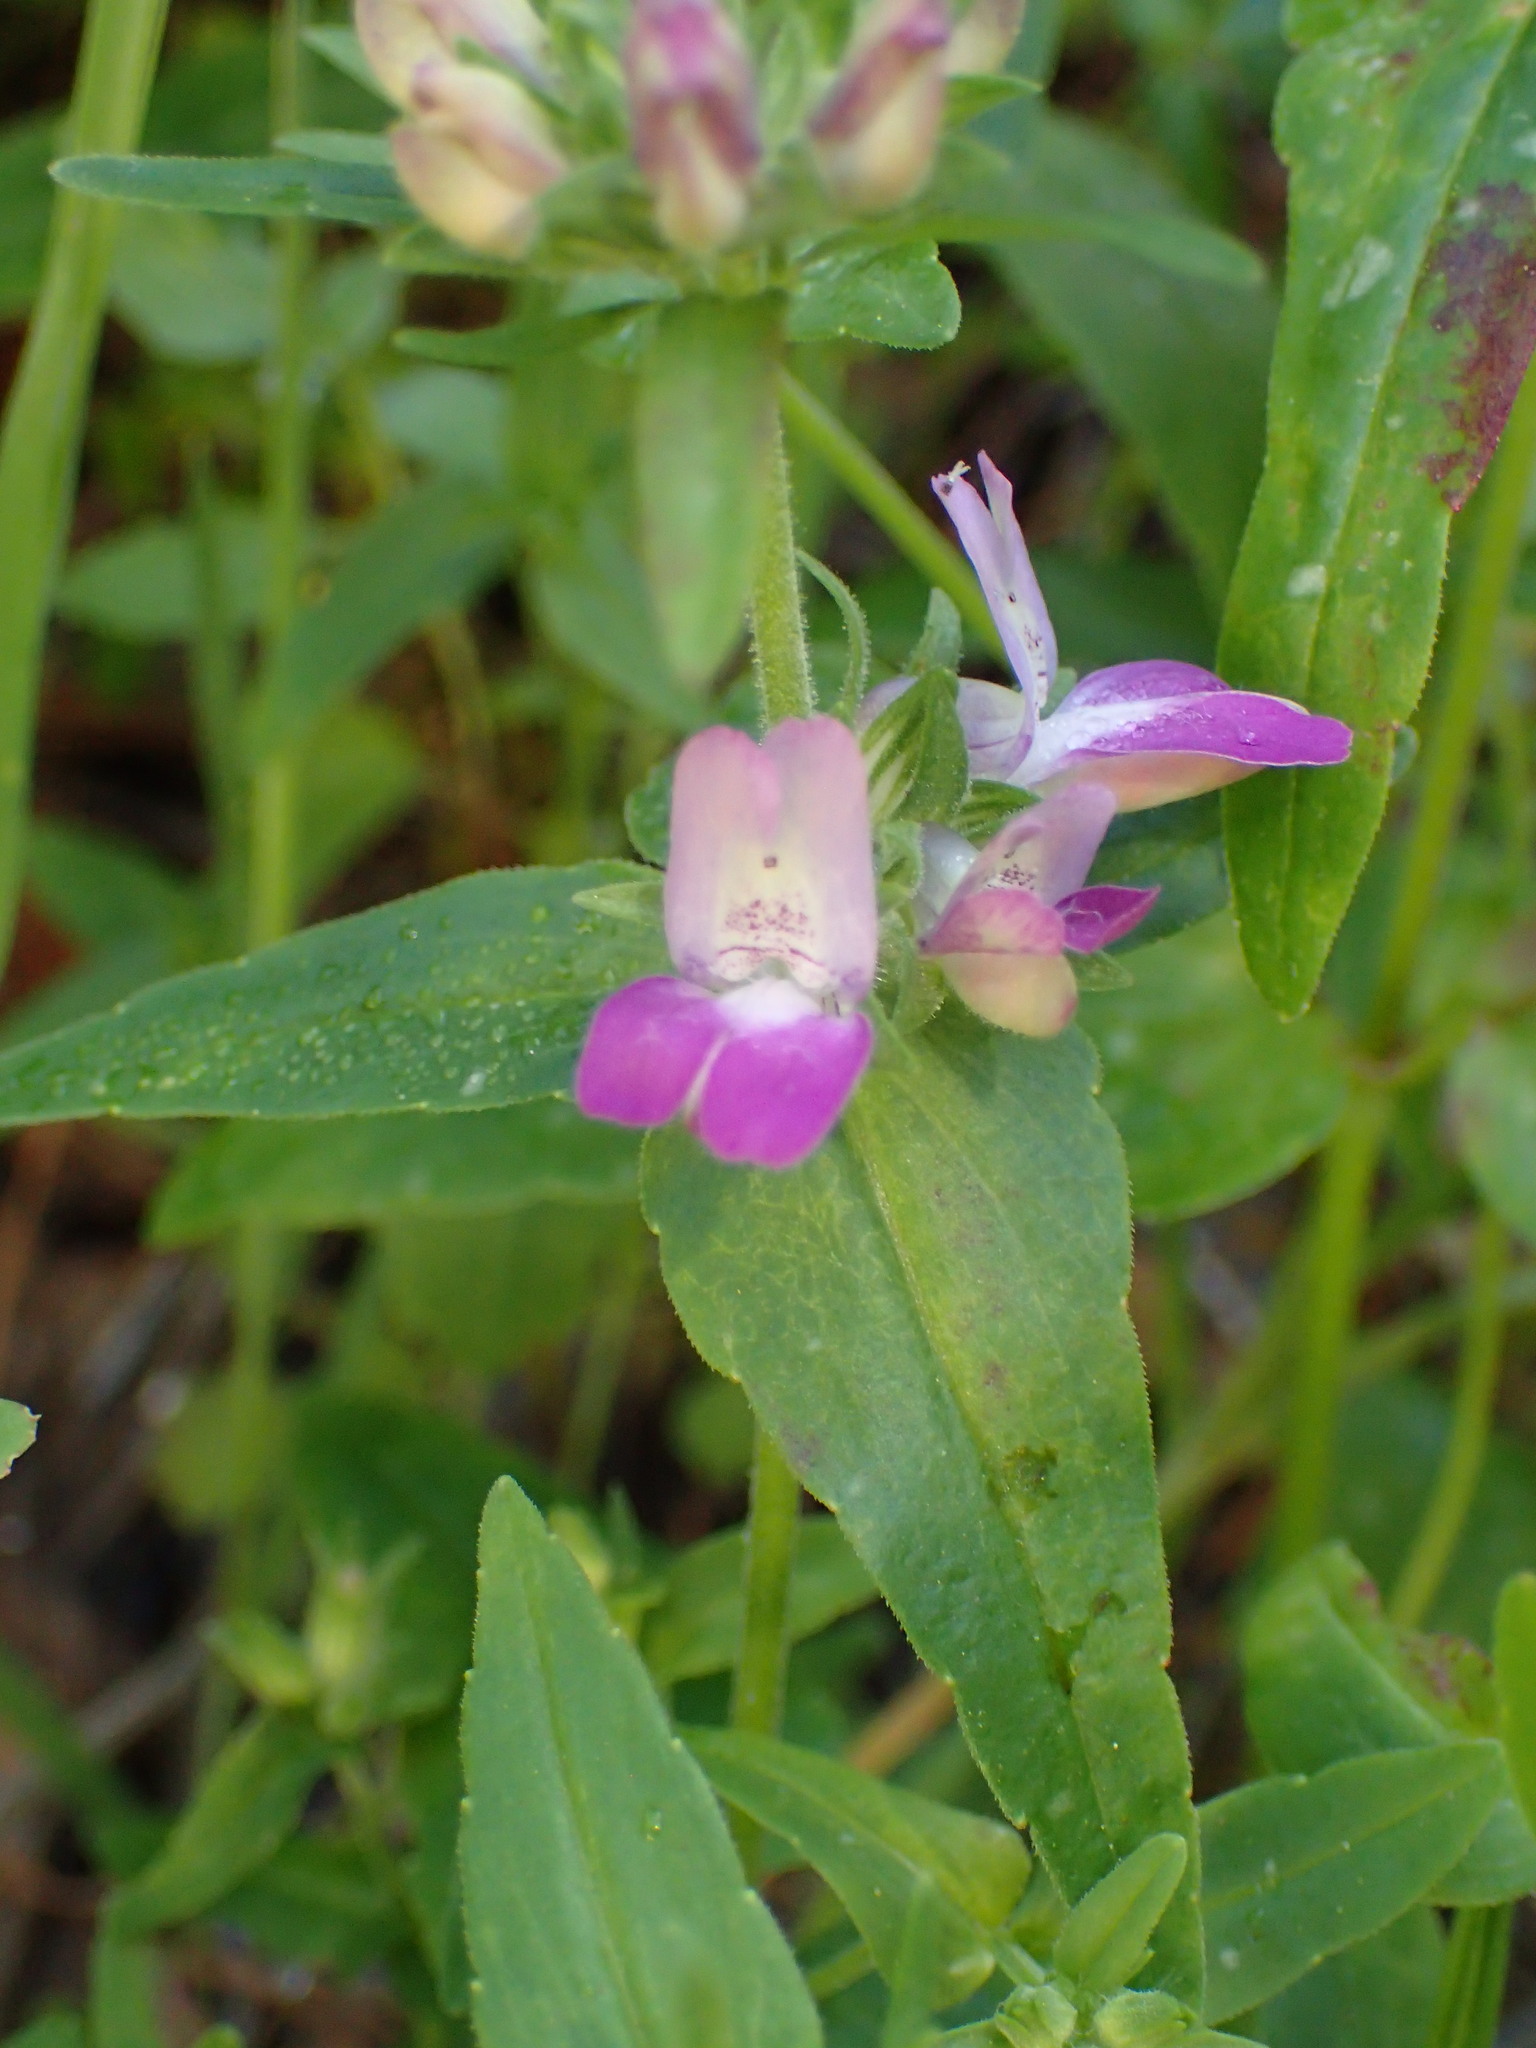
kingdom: Plantae
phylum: Tracheophyta
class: Magnoliopsida
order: Lamiales
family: Plantaginaceae
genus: Collinsia
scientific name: Collinsia heterophylla
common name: Chinese-houses
